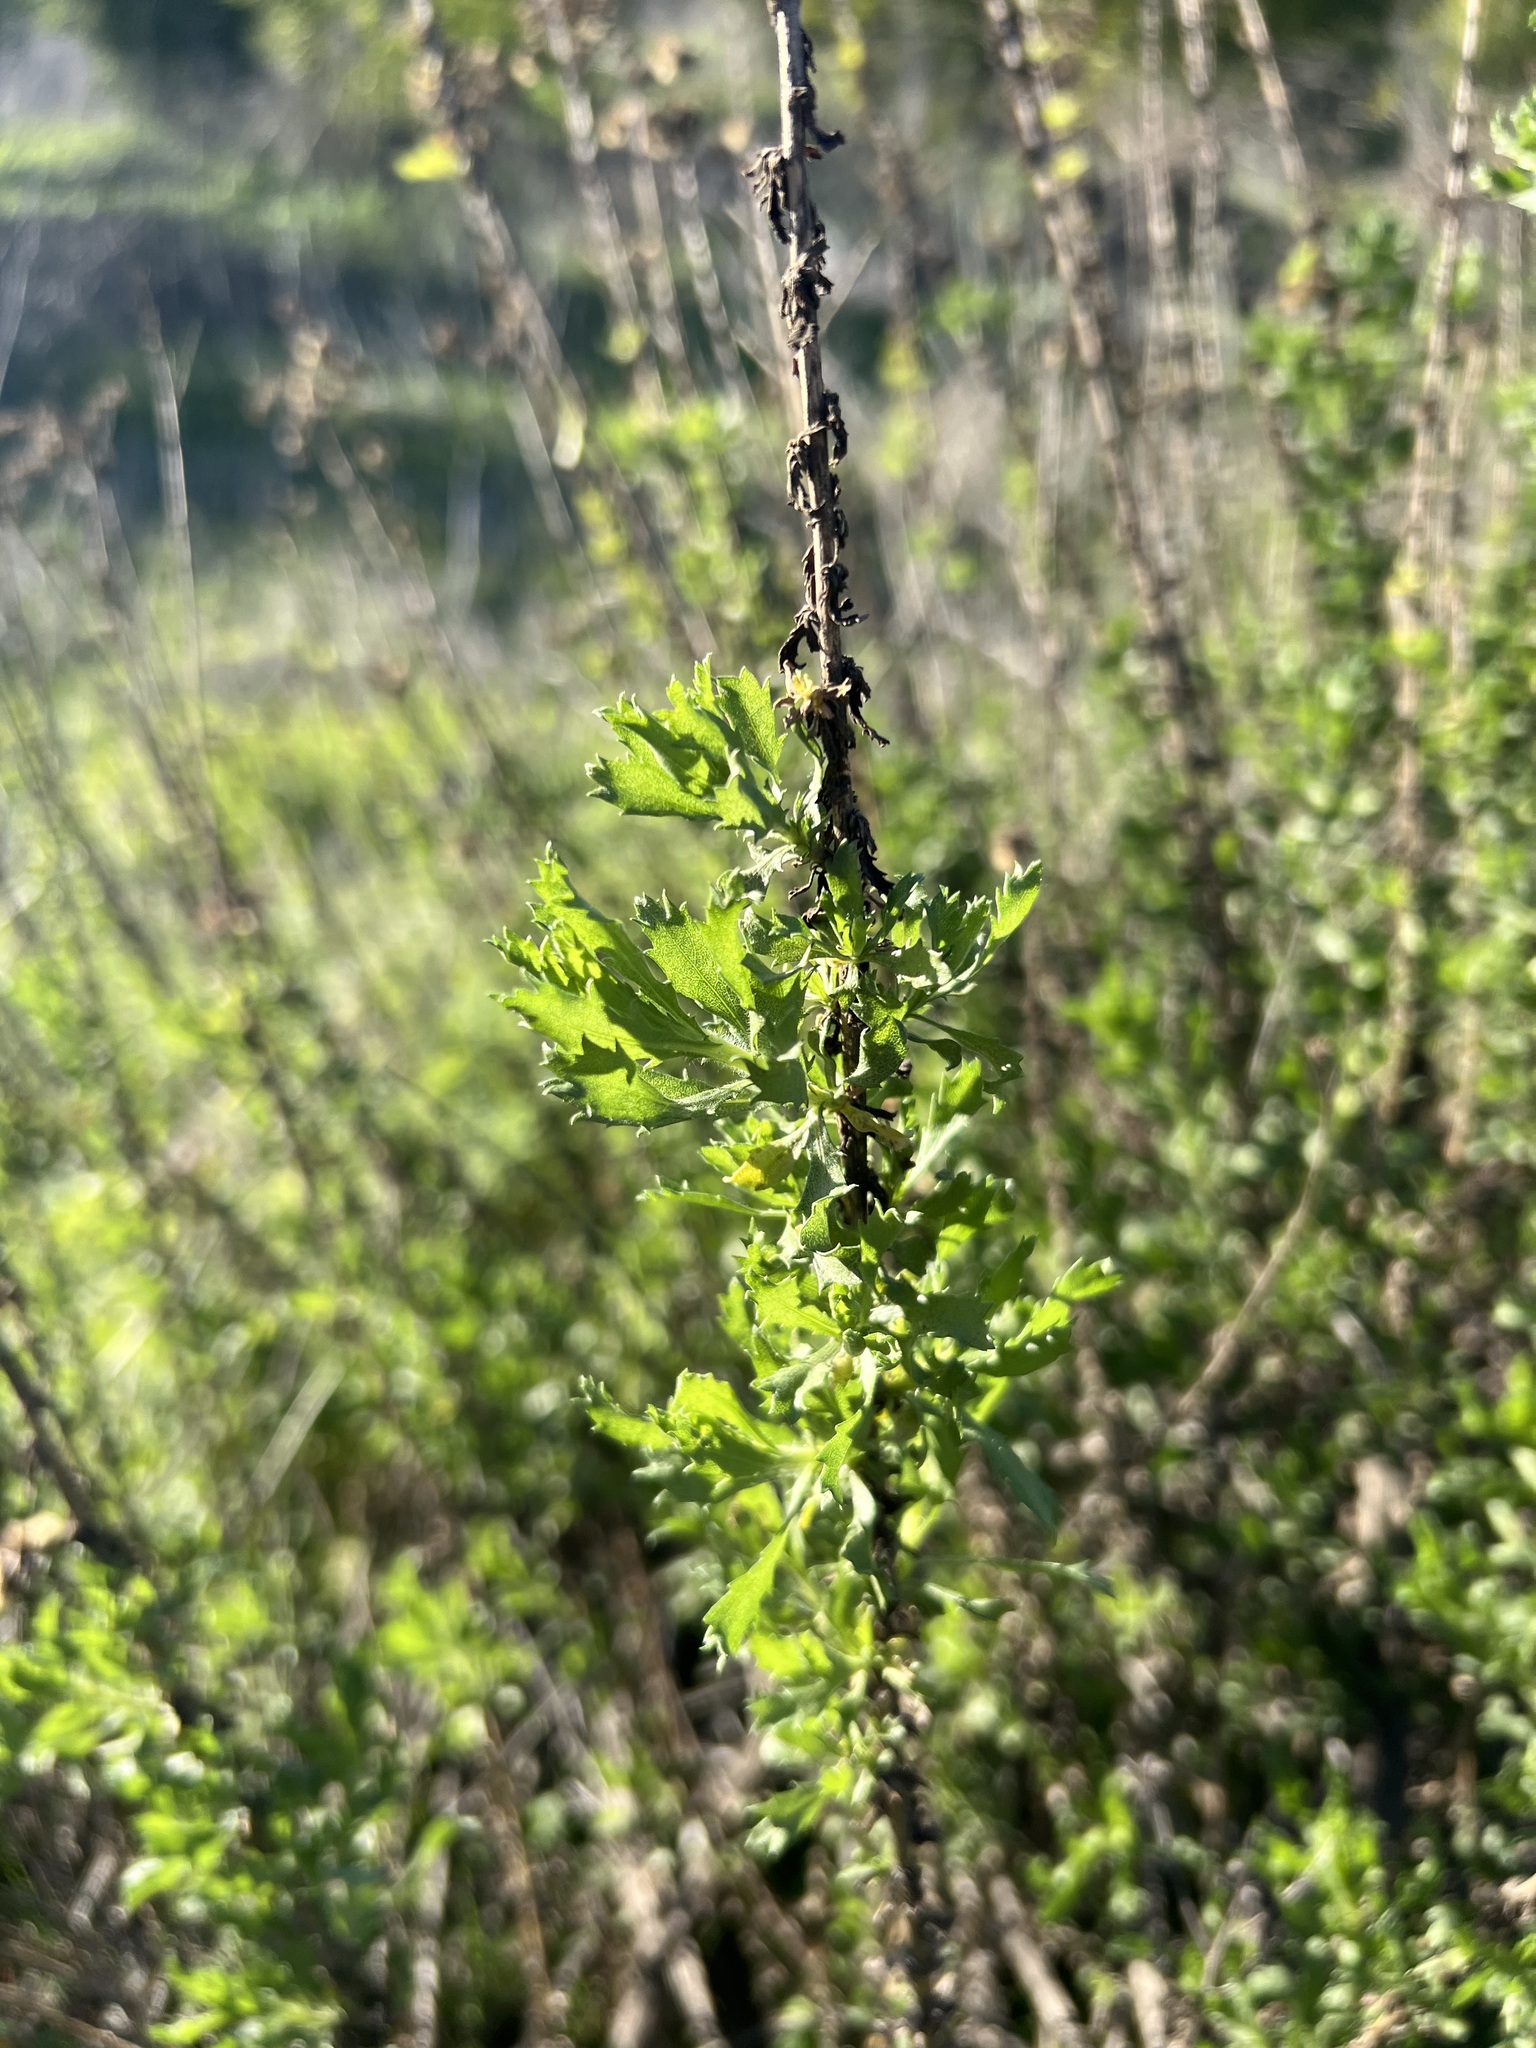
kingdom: Plantae
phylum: Tracheophyta
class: Magnoliopsida
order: Asterales
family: Asteraceae
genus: Isocoma
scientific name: Isocoma menziesii
